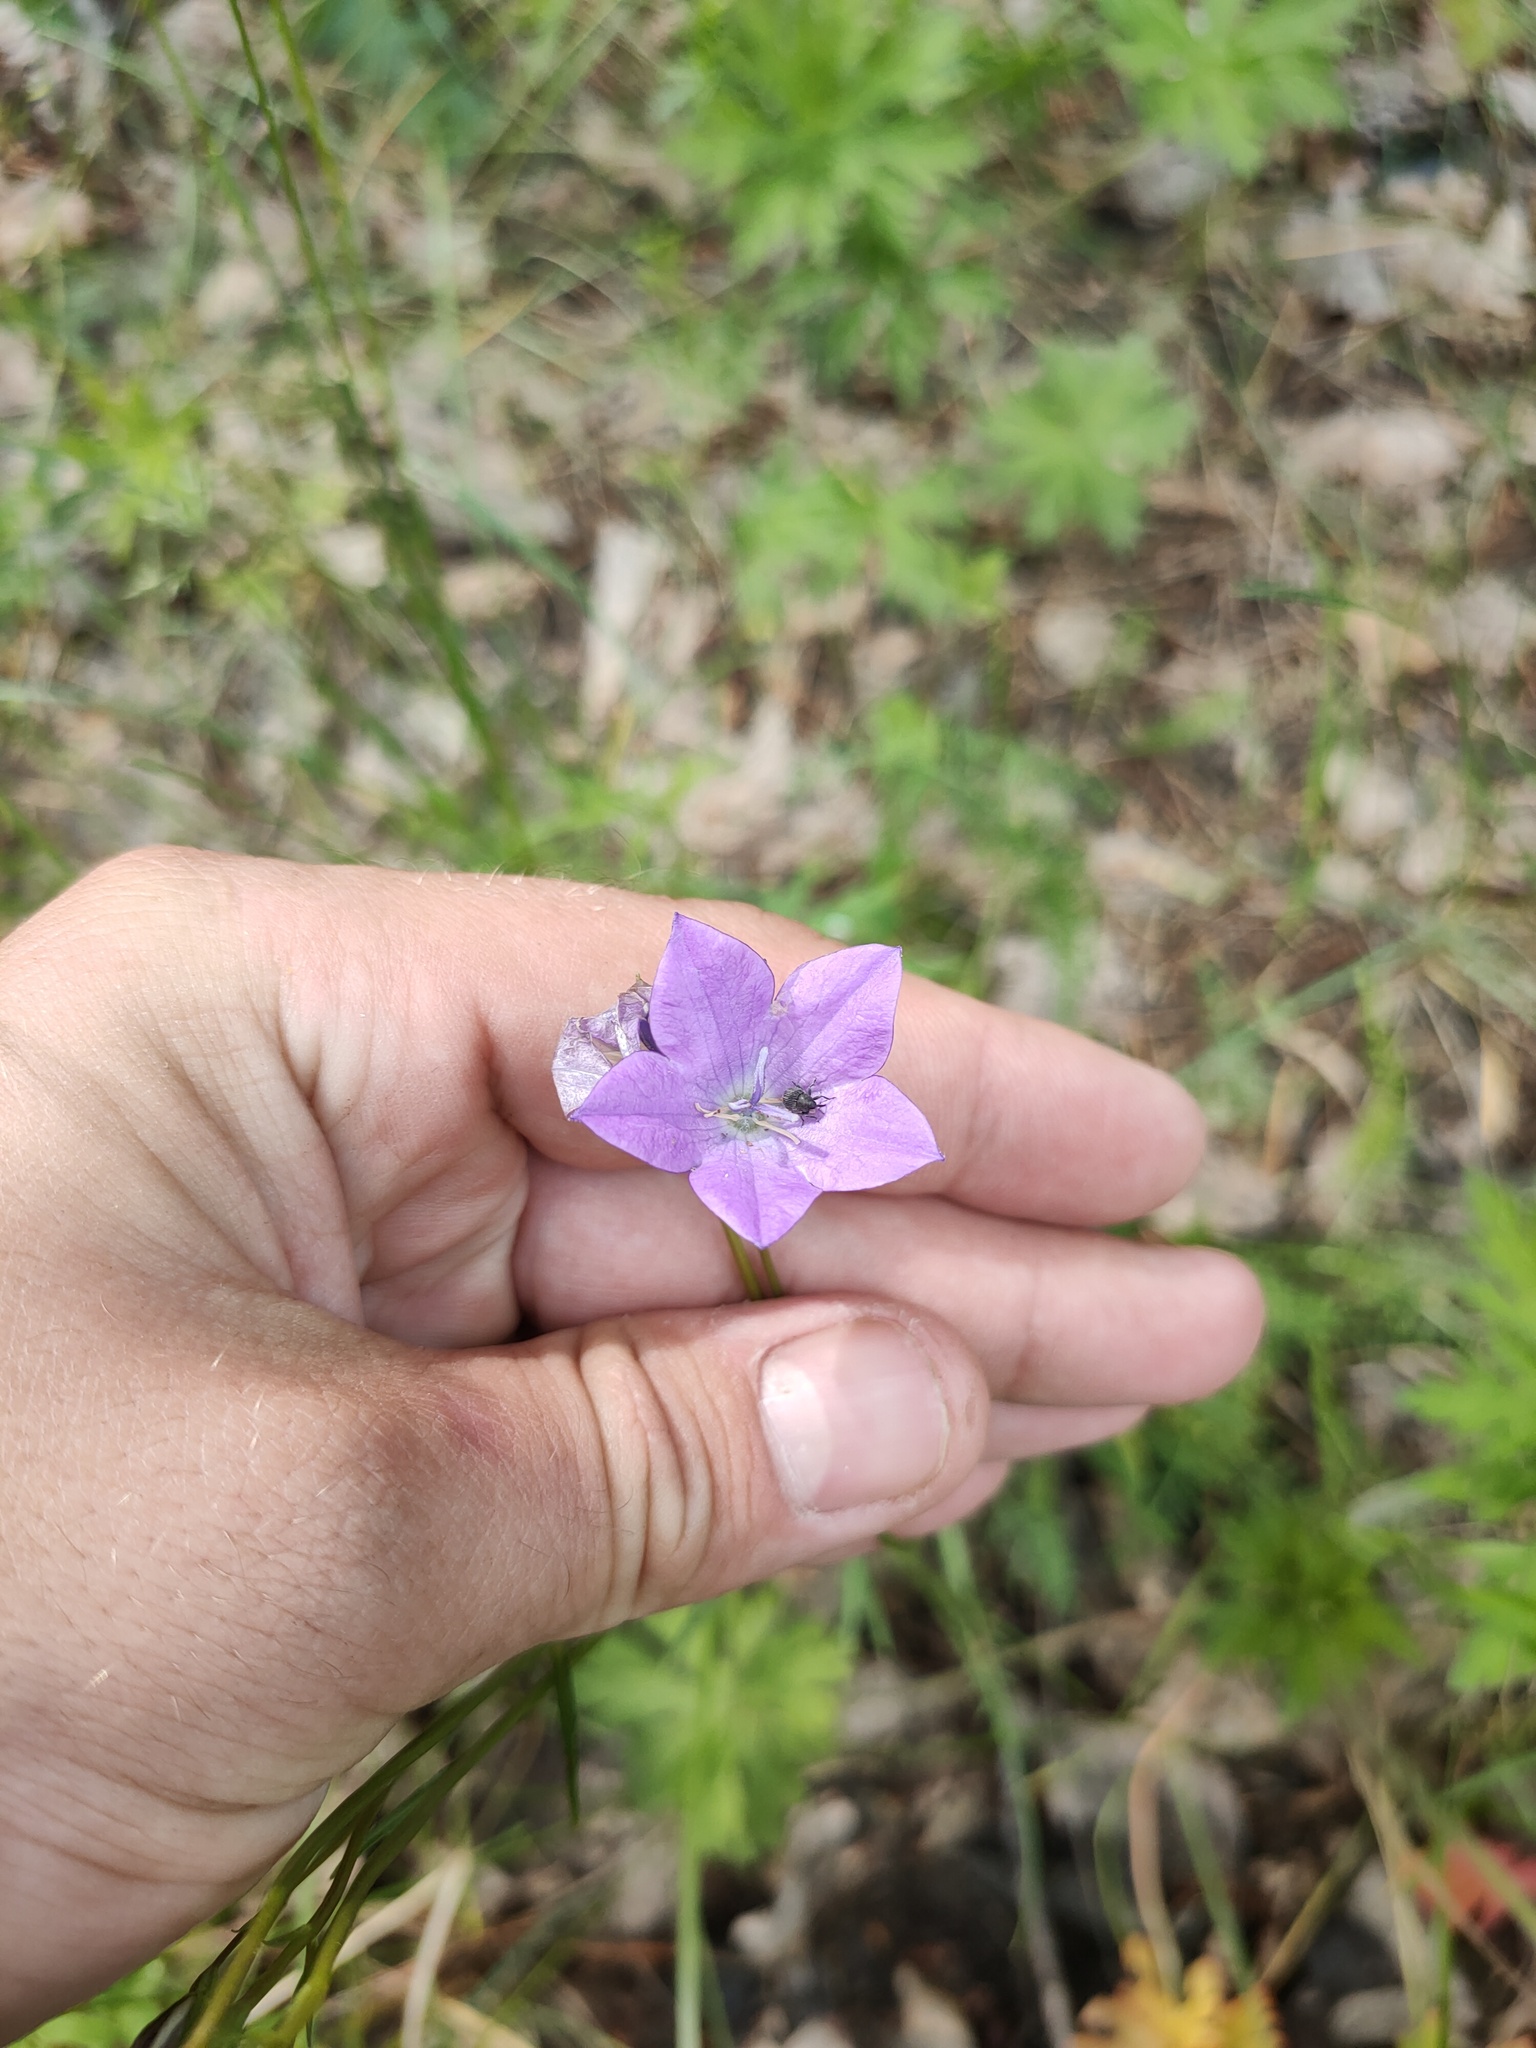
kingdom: Plantae
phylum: Tracheophyta
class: Magnoliopsida
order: Asterales
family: Campanulaceae
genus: Campanula
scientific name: Campanula stevenii
